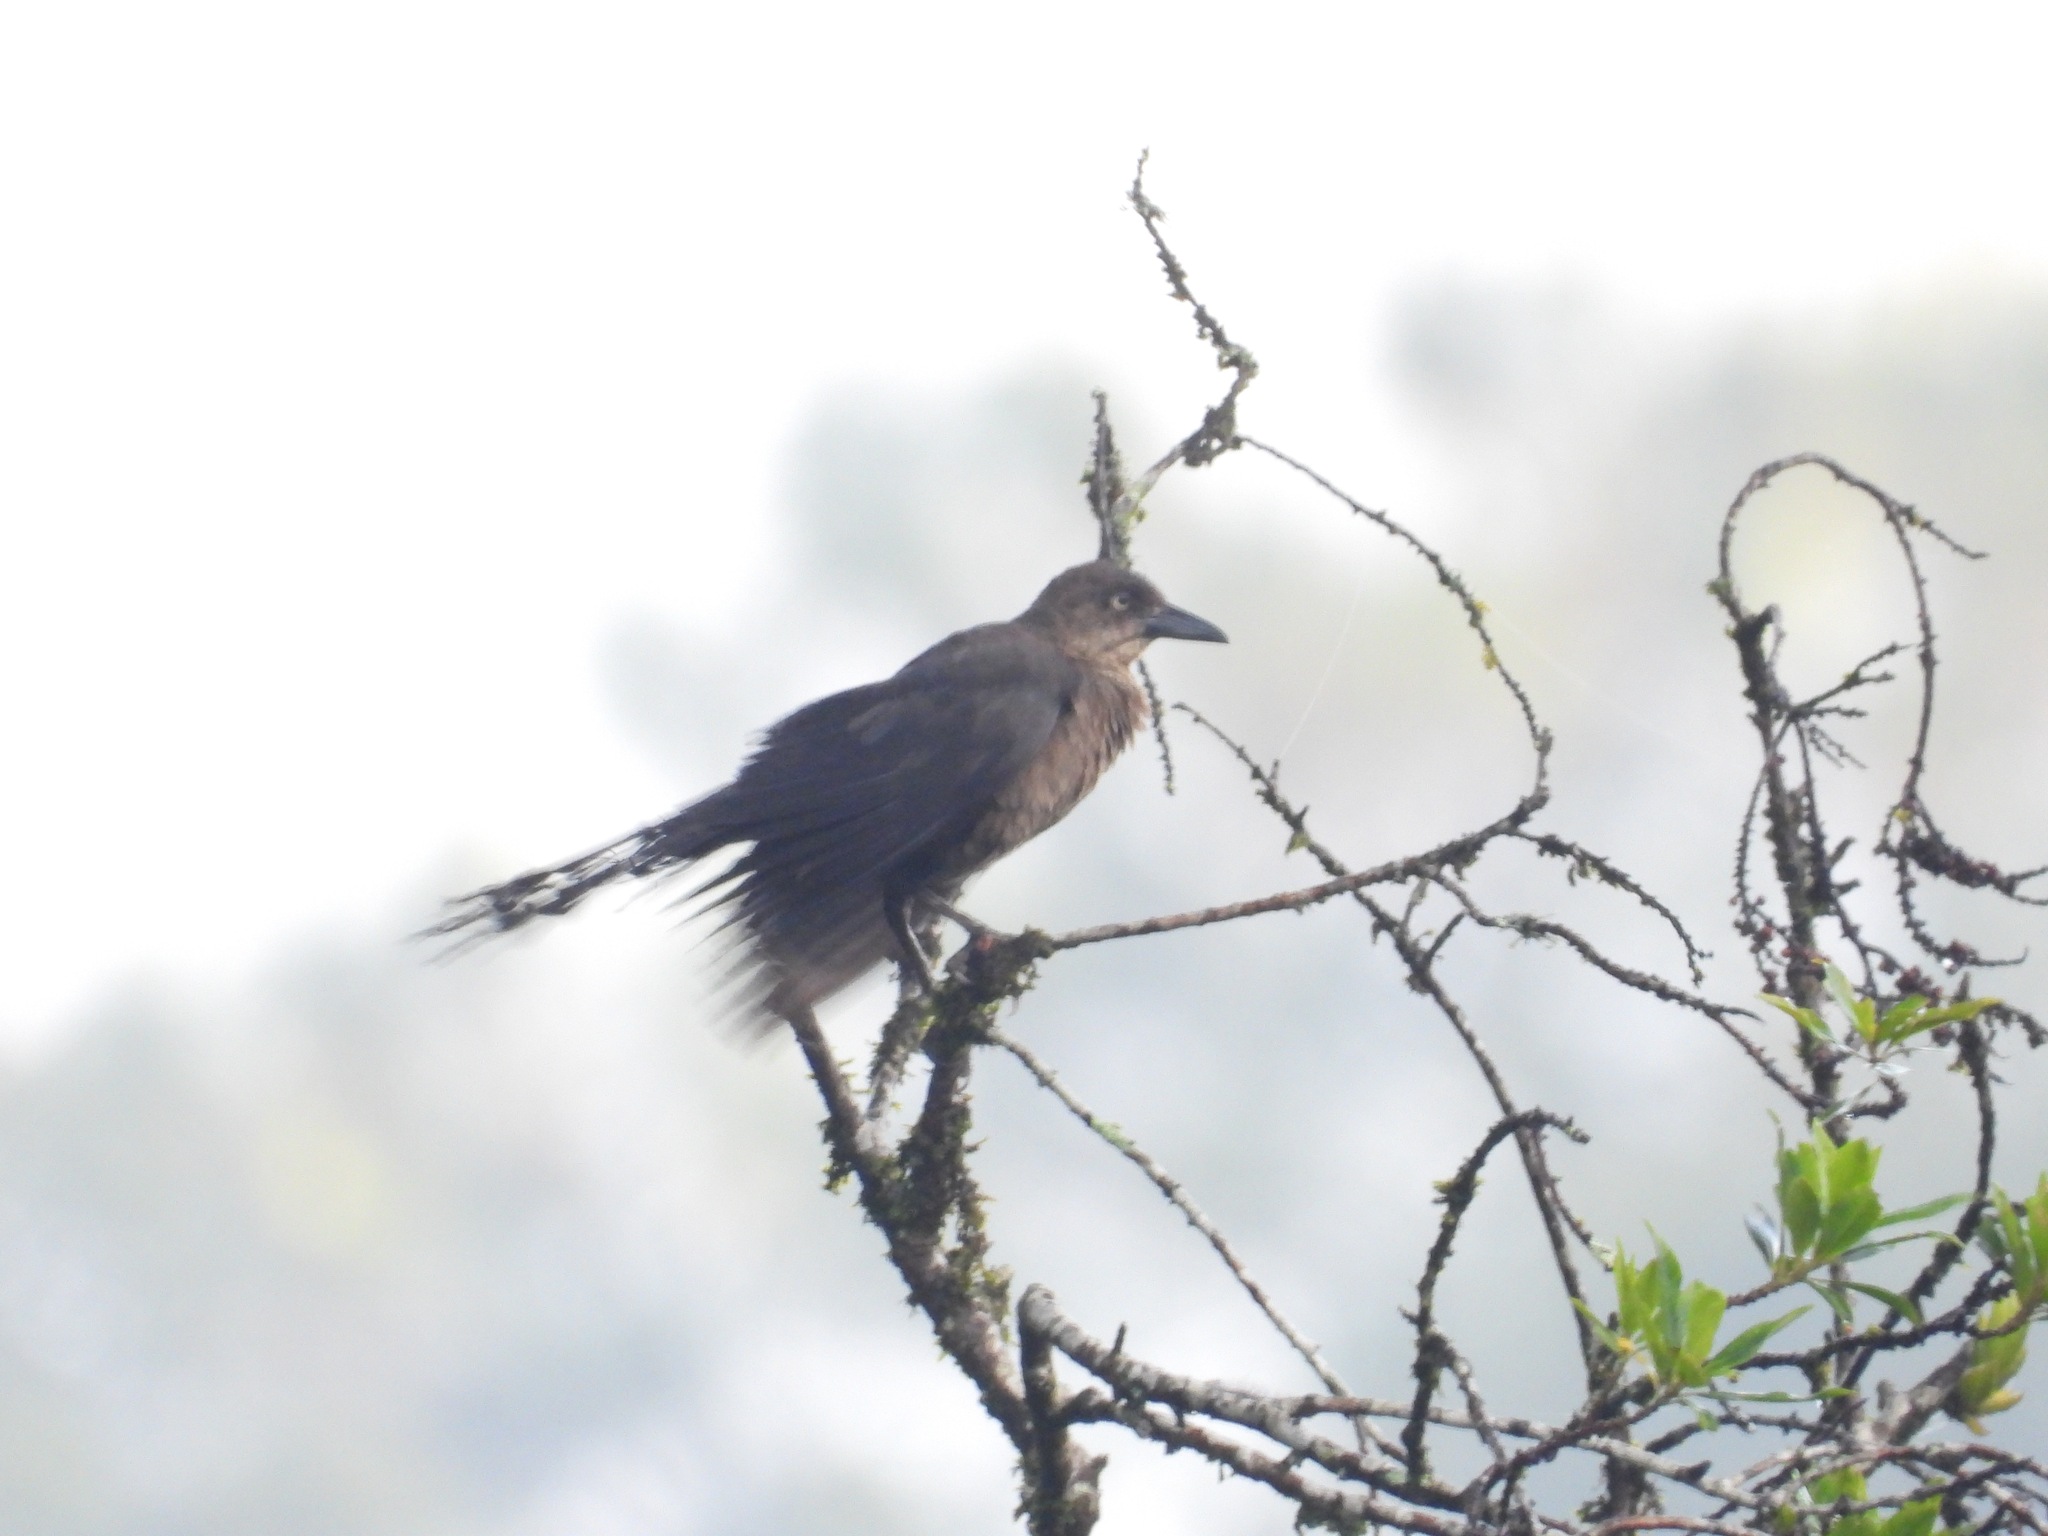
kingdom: Animalia
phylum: Chordata
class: Aves
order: Passeriformes
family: Icteridae
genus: Quiscalus
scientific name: Quiscalus mexicanus
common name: Great-tailed grackle
